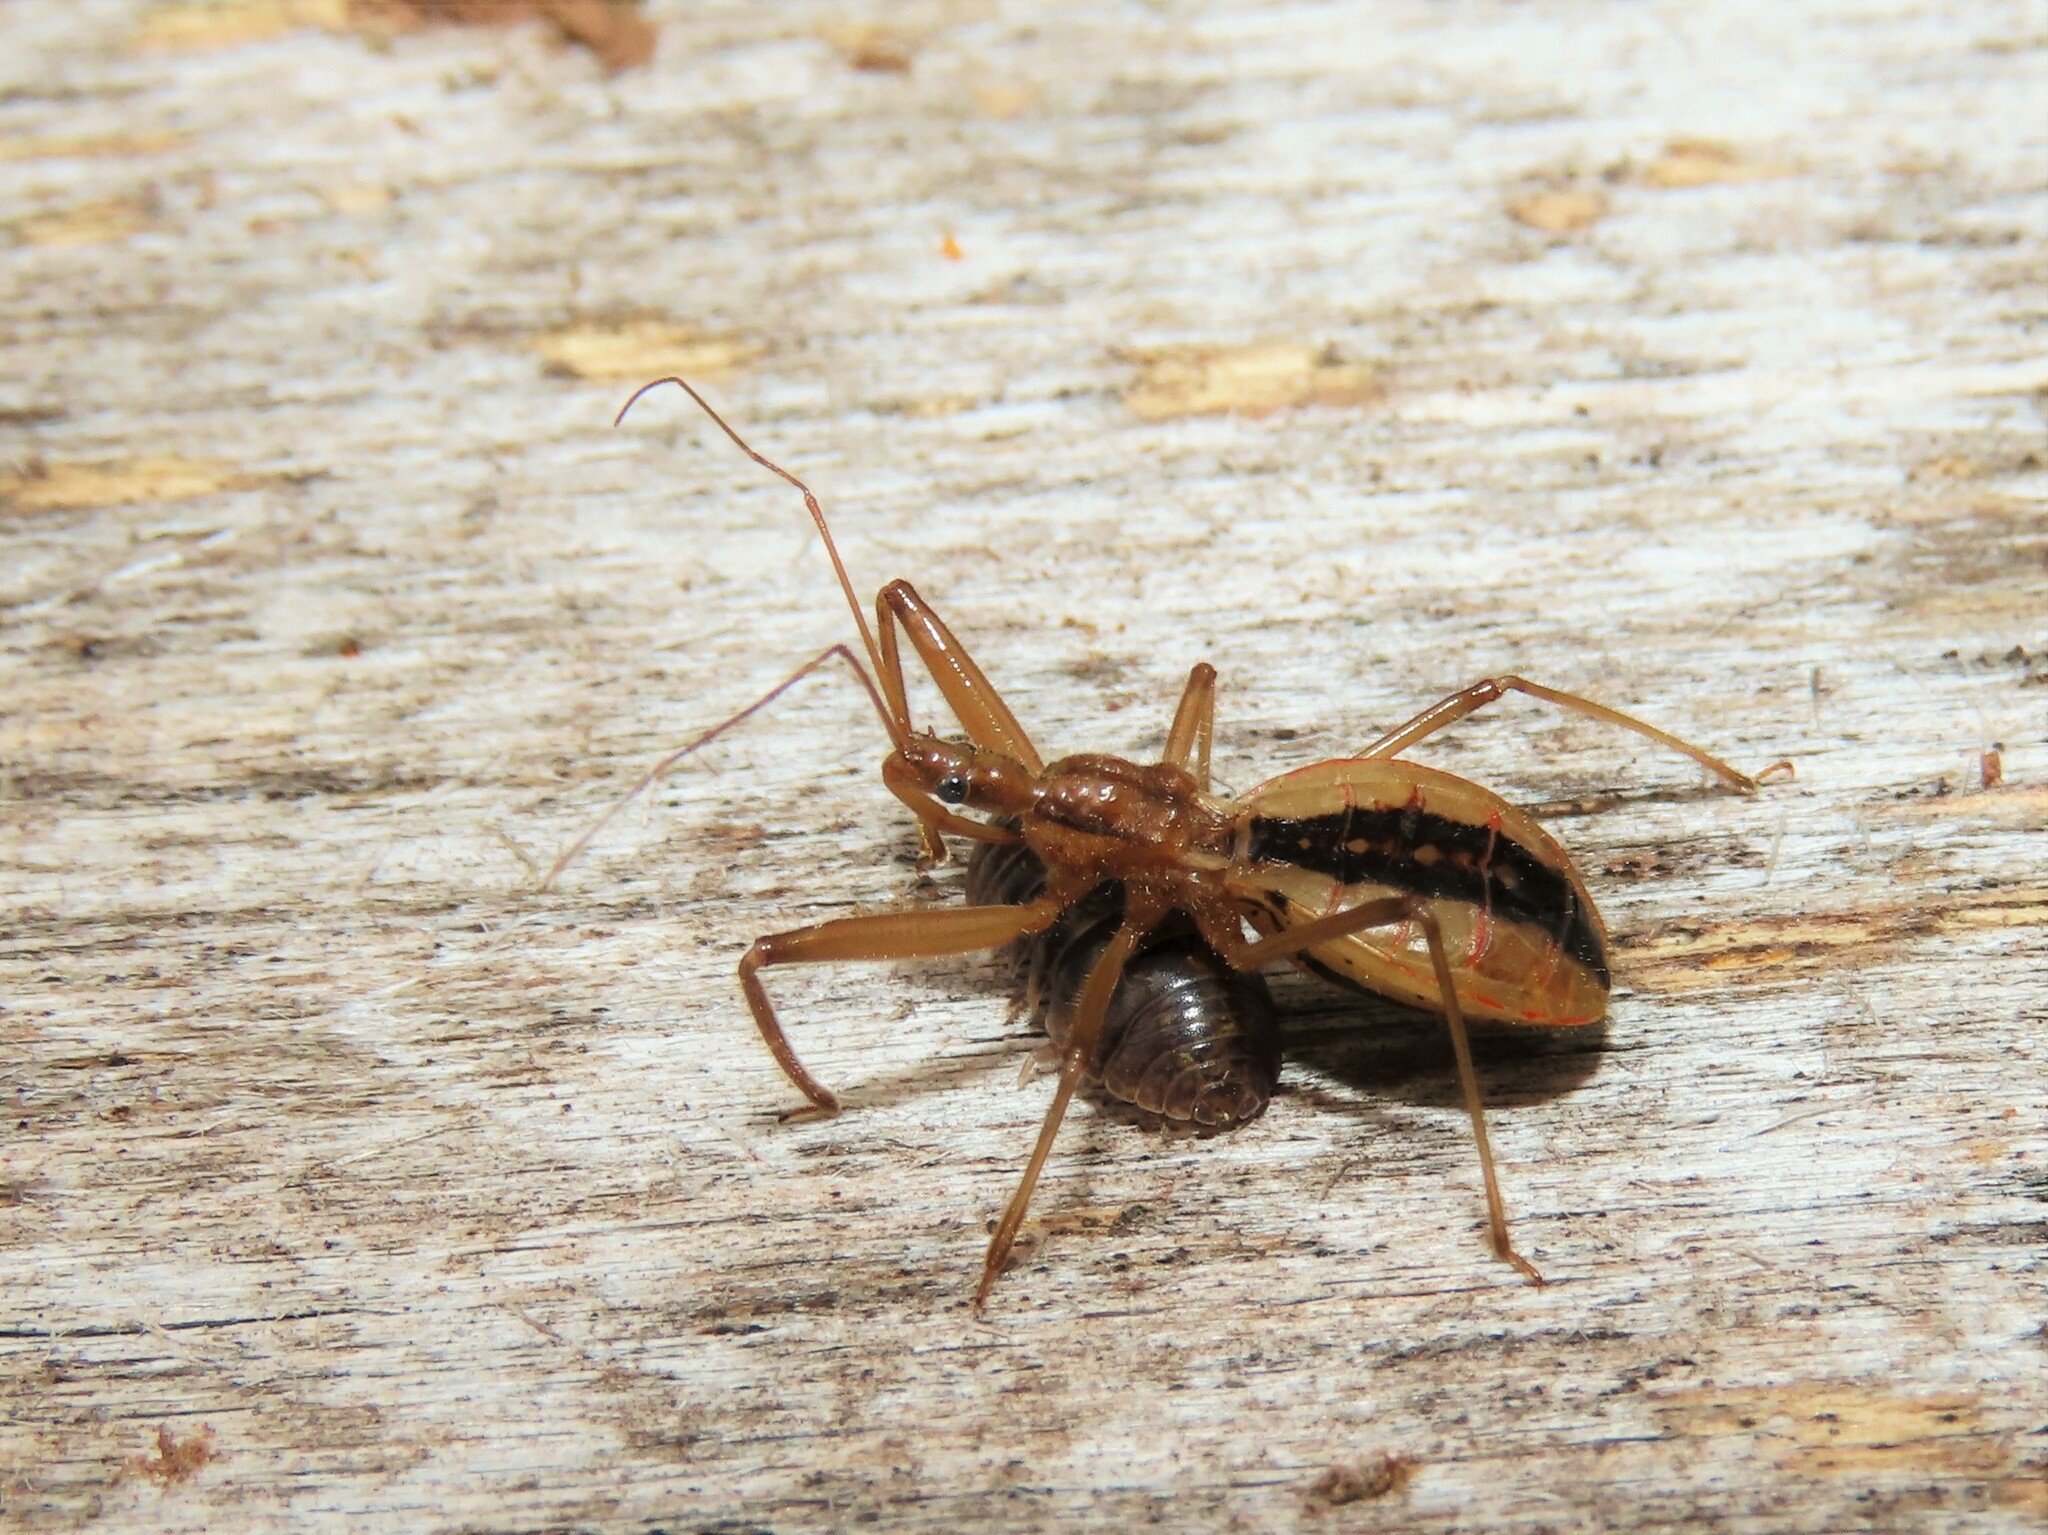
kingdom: Animalia
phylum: Arthropoda
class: Insecta
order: Hemiptera
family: Reduviidae
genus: Fitchia
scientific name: Fitchia aptera
